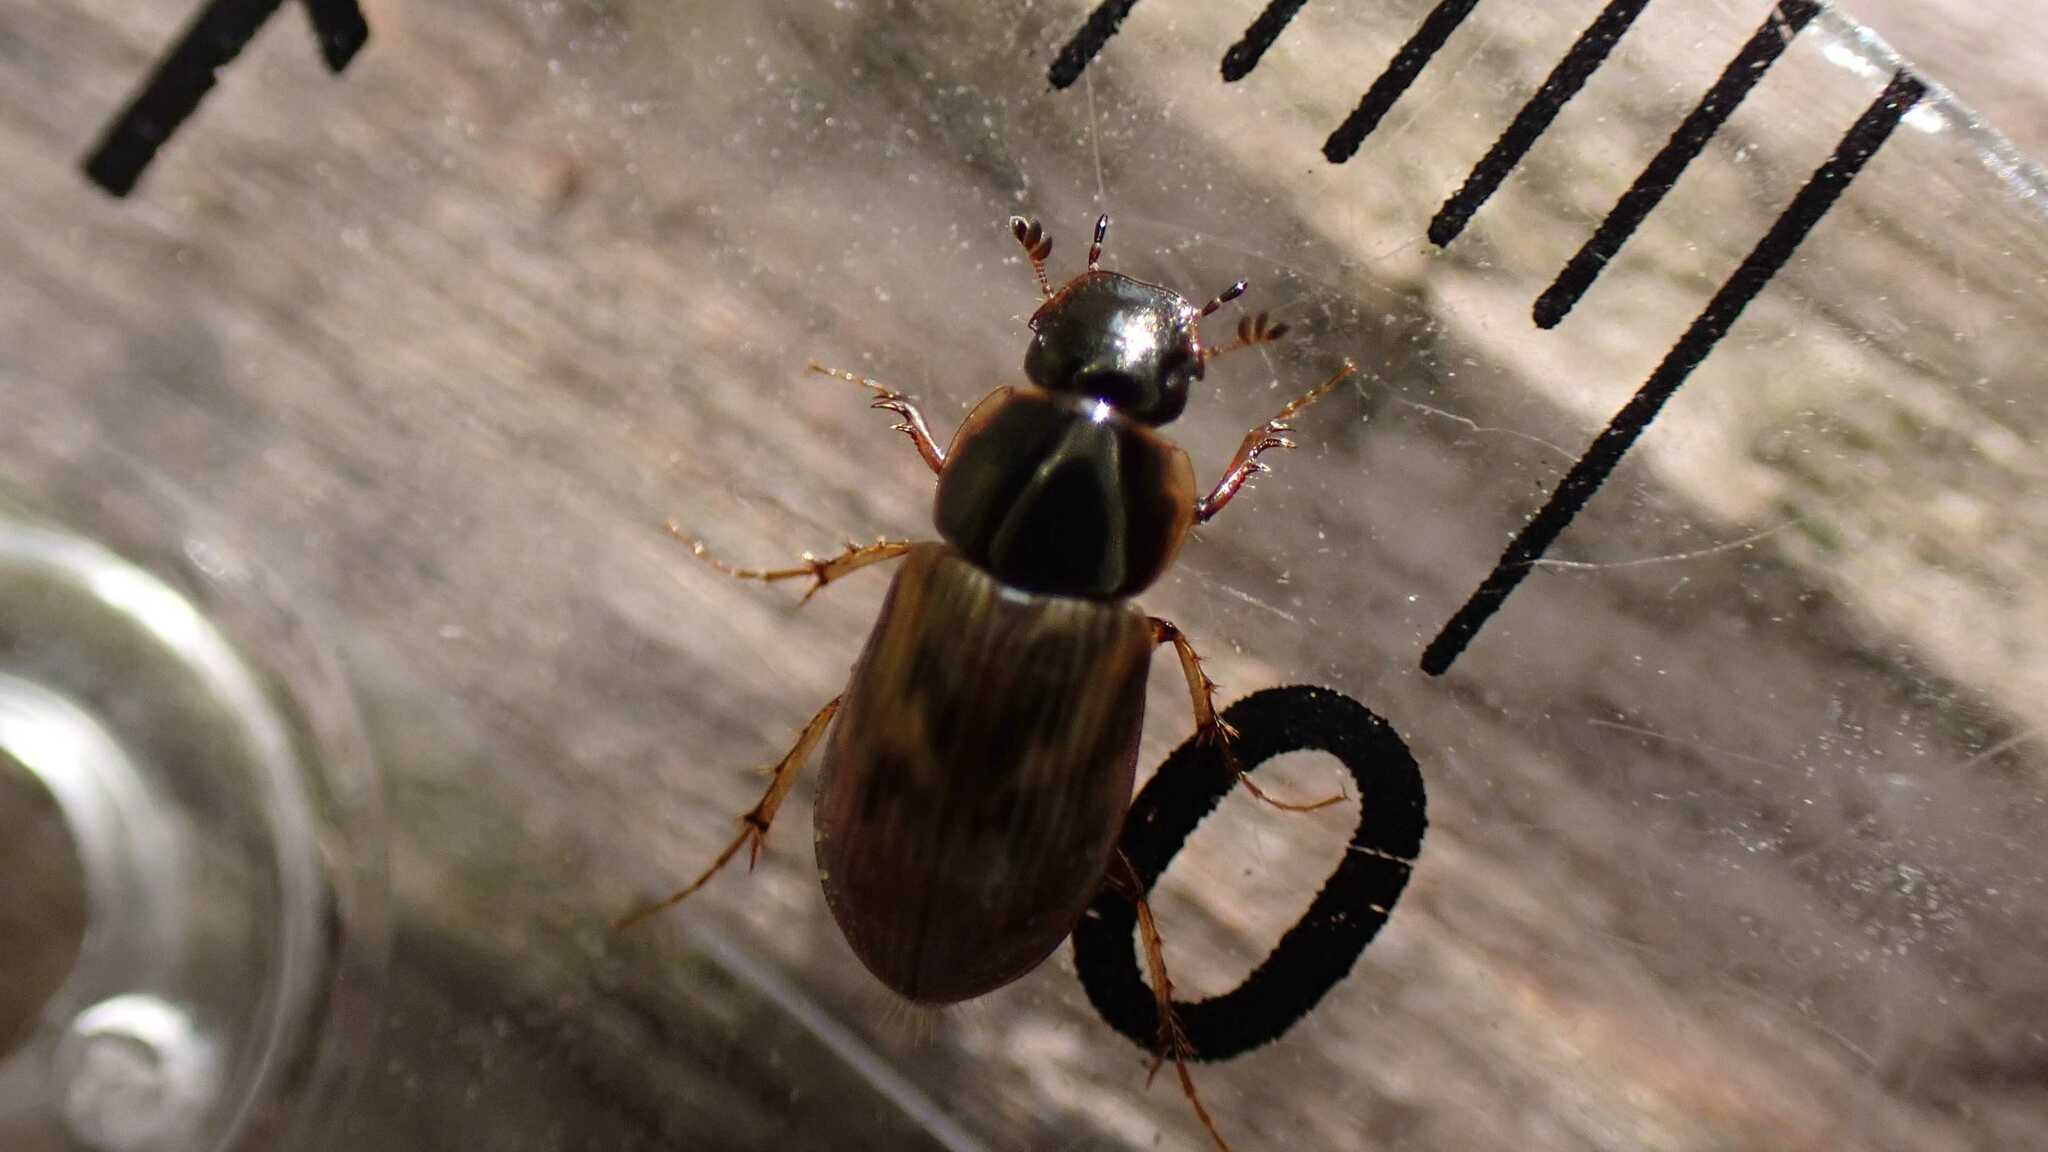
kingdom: Animalia
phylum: Arthropoda
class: Insecta
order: Coleoptera
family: Scarabaeidae
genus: Nimbus
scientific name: Nimbus contaminatus
